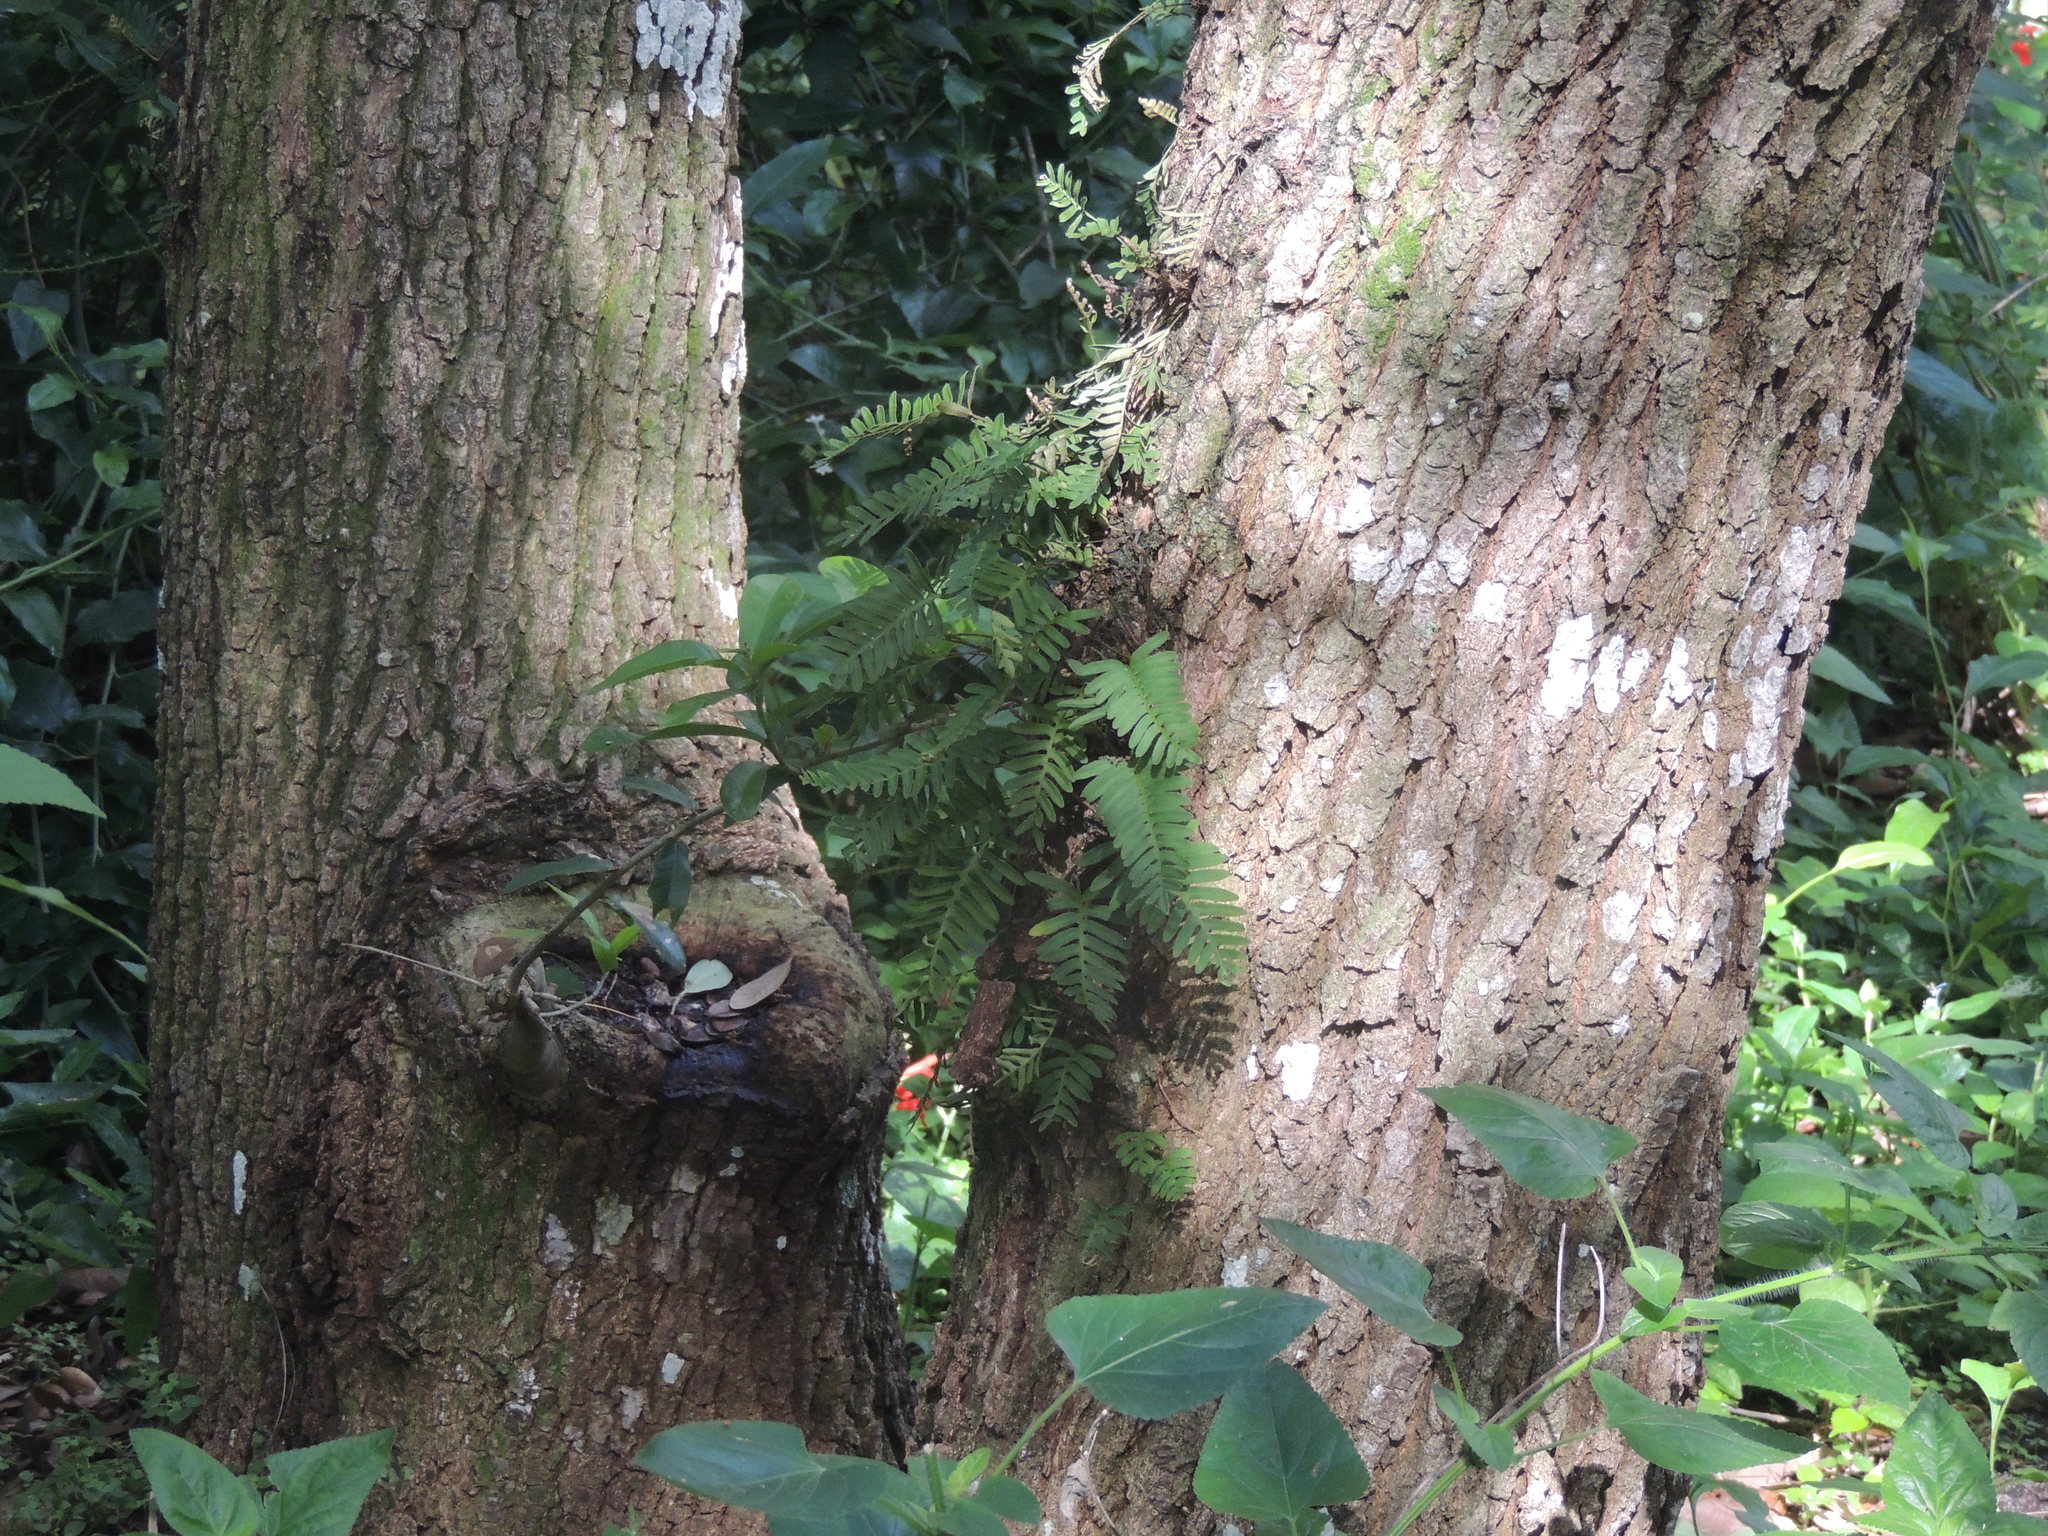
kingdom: Plantae
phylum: Tracheophyta
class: Polypodiopsida
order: Polypodiales
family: Polypodiaceae
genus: Pleopeltis
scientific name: Pleopeltis michauxiana
